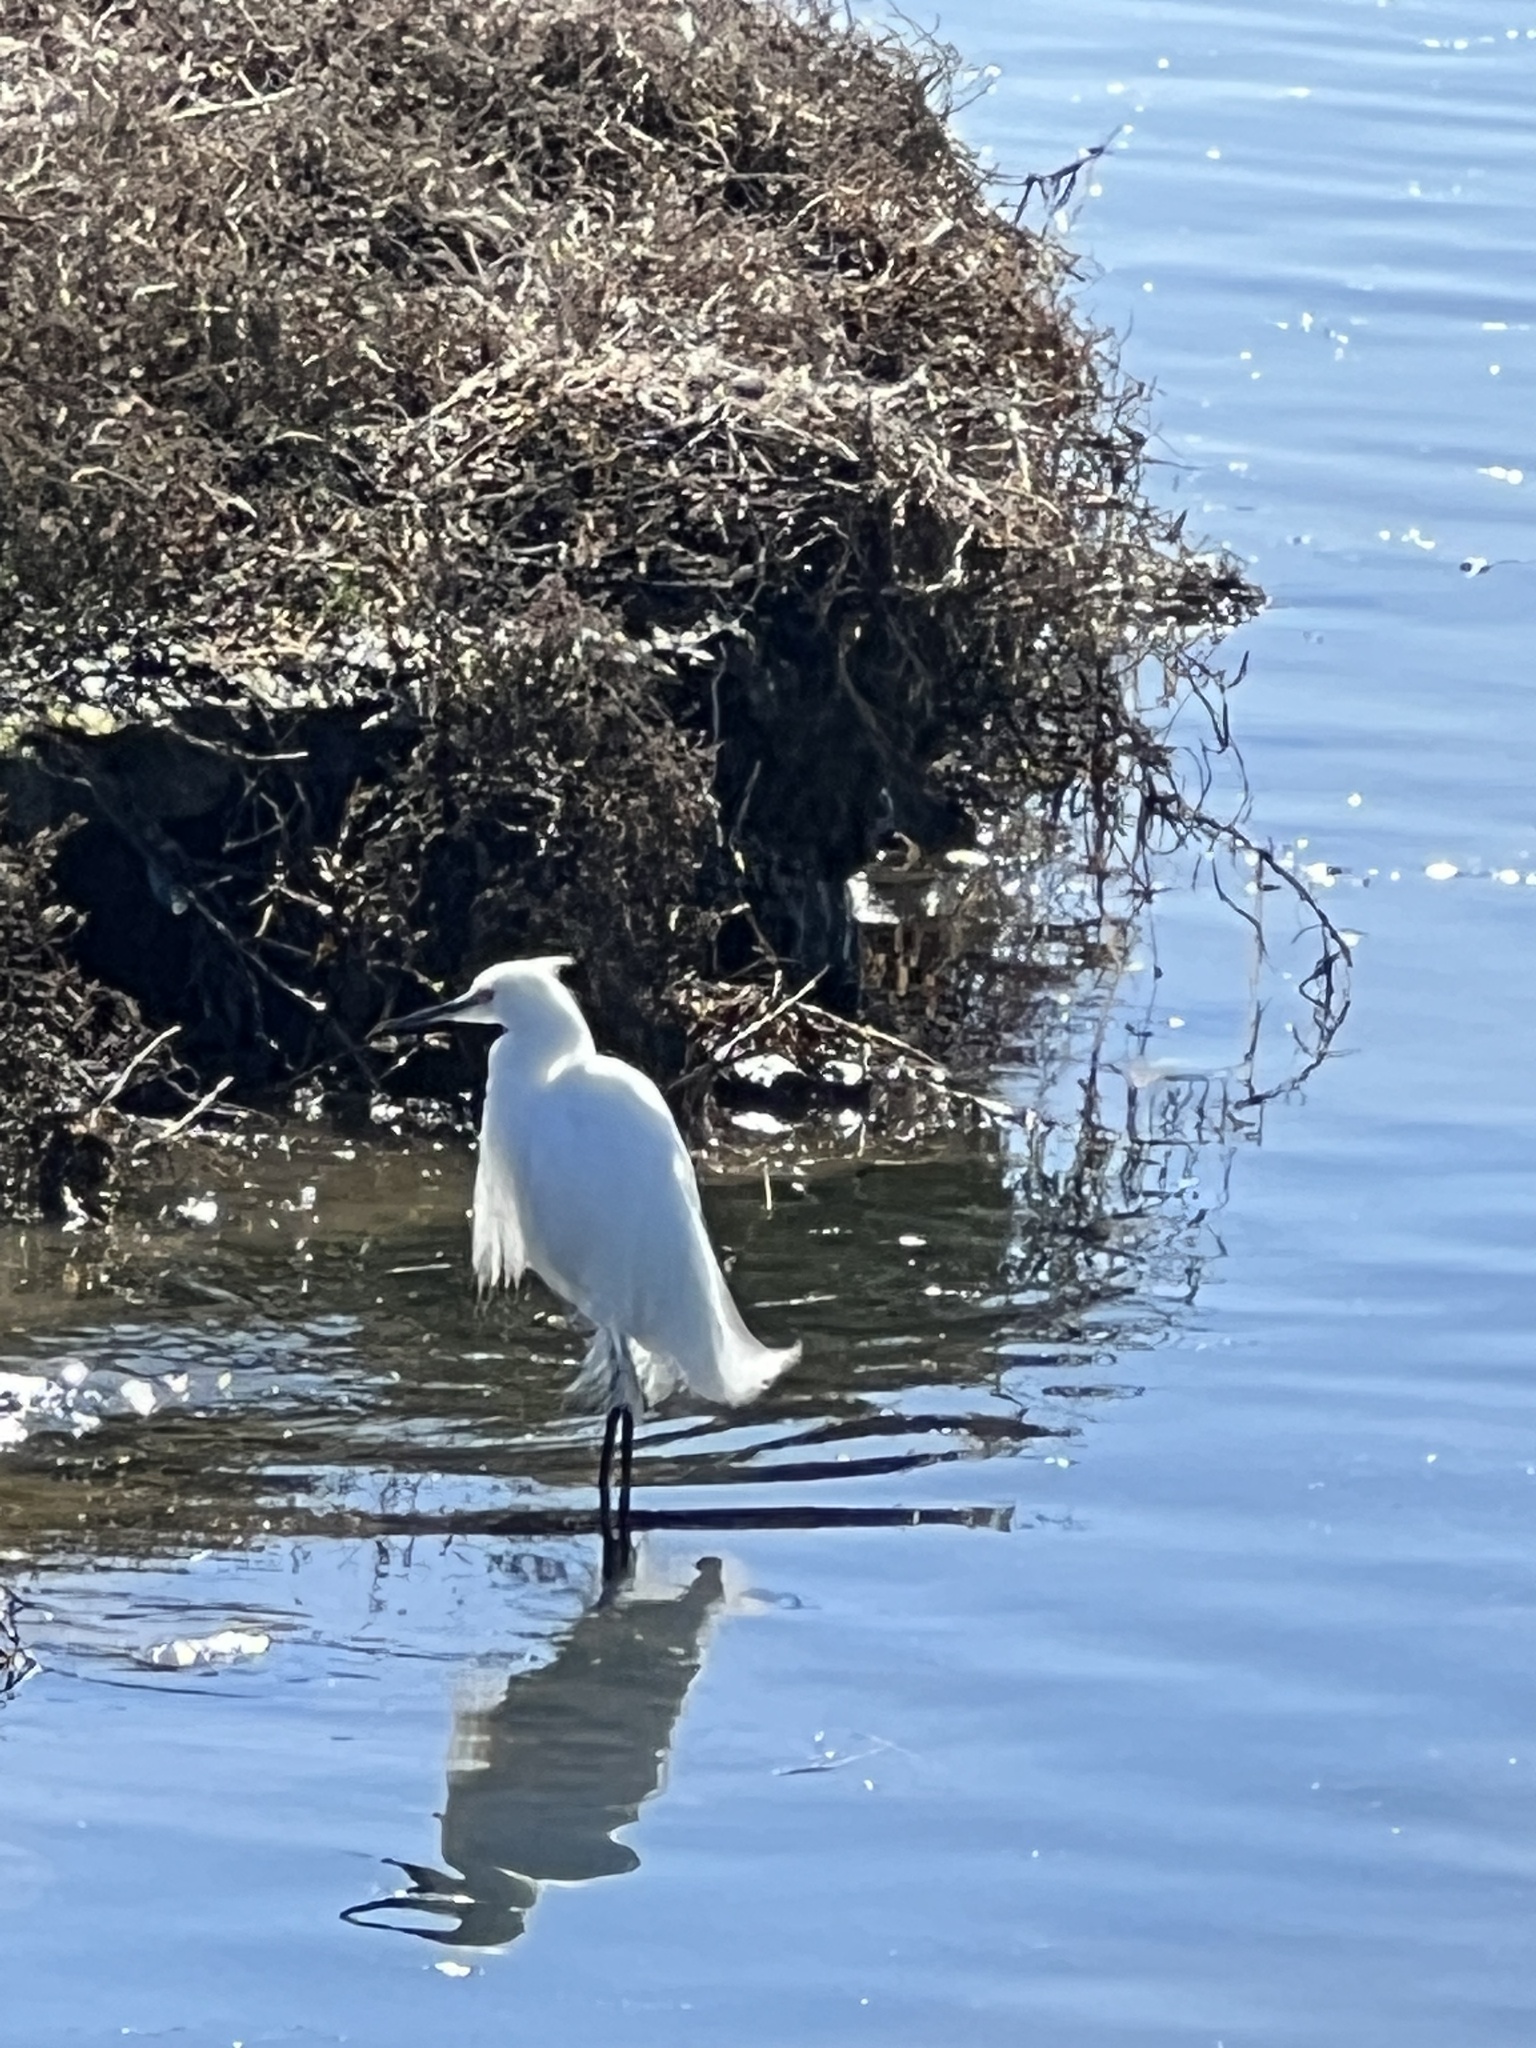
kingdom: Animalia
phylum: Chordata
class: Aves
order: Pelecaniformes
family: Ardeidae
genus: Egretta
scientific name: Egretta thula
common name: Snowy egret
